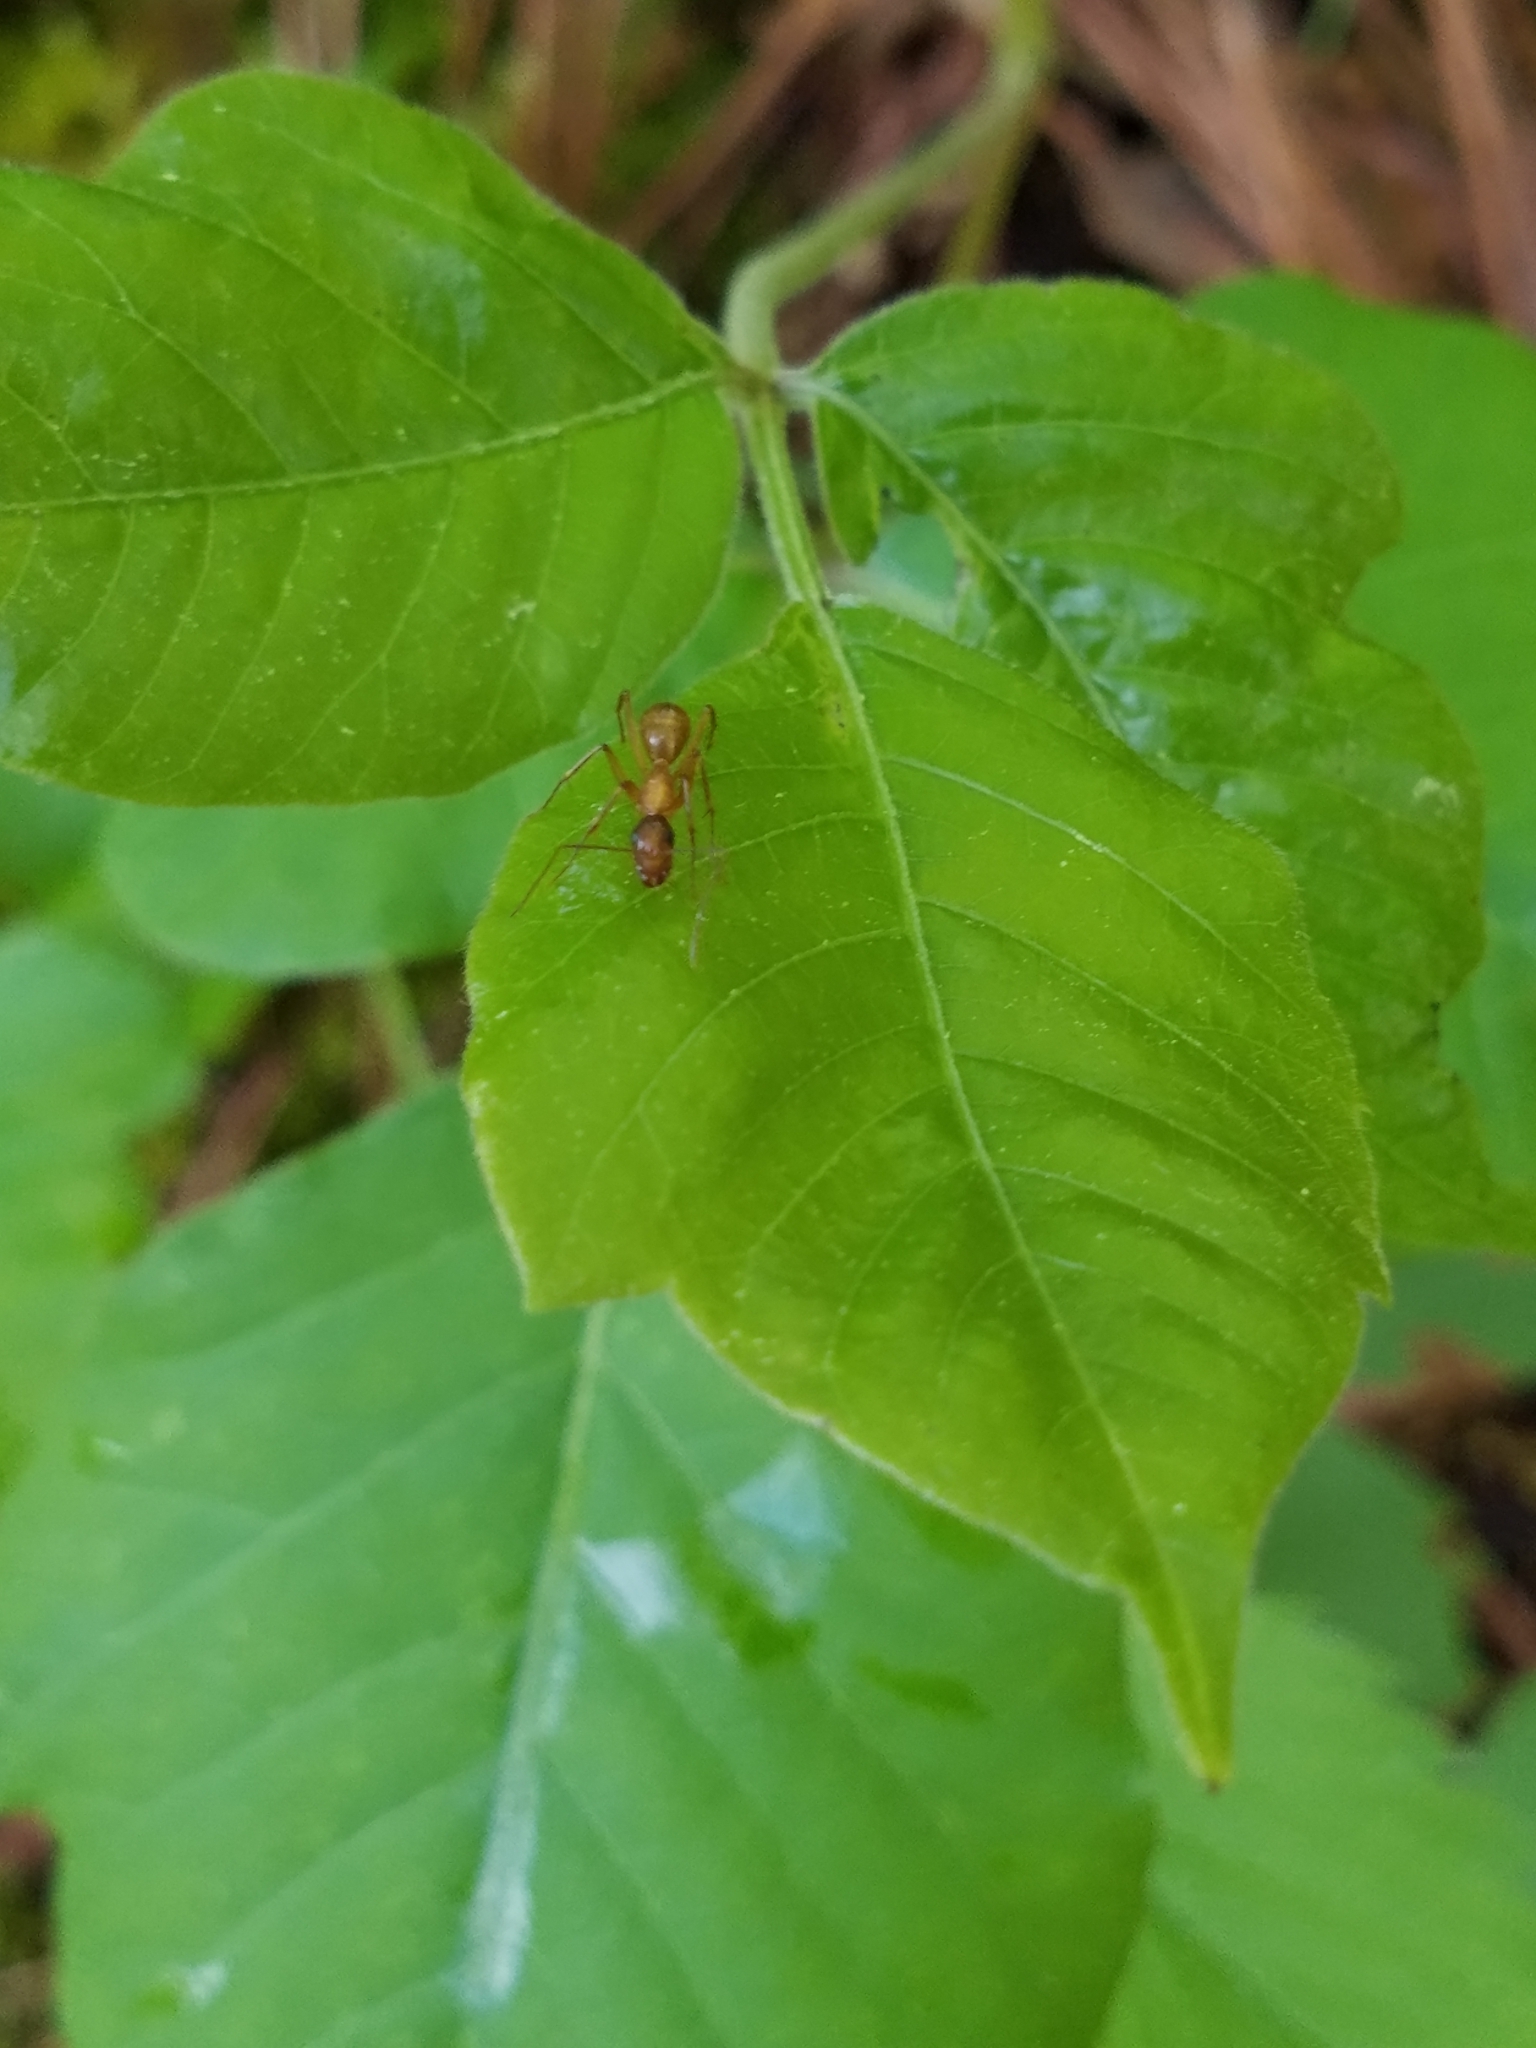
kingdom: Animalia
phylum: Arthropoda
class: Insecta
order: Hymenoptera
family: Formicidae
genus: Camponotus
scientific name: Camponotus castaneus
